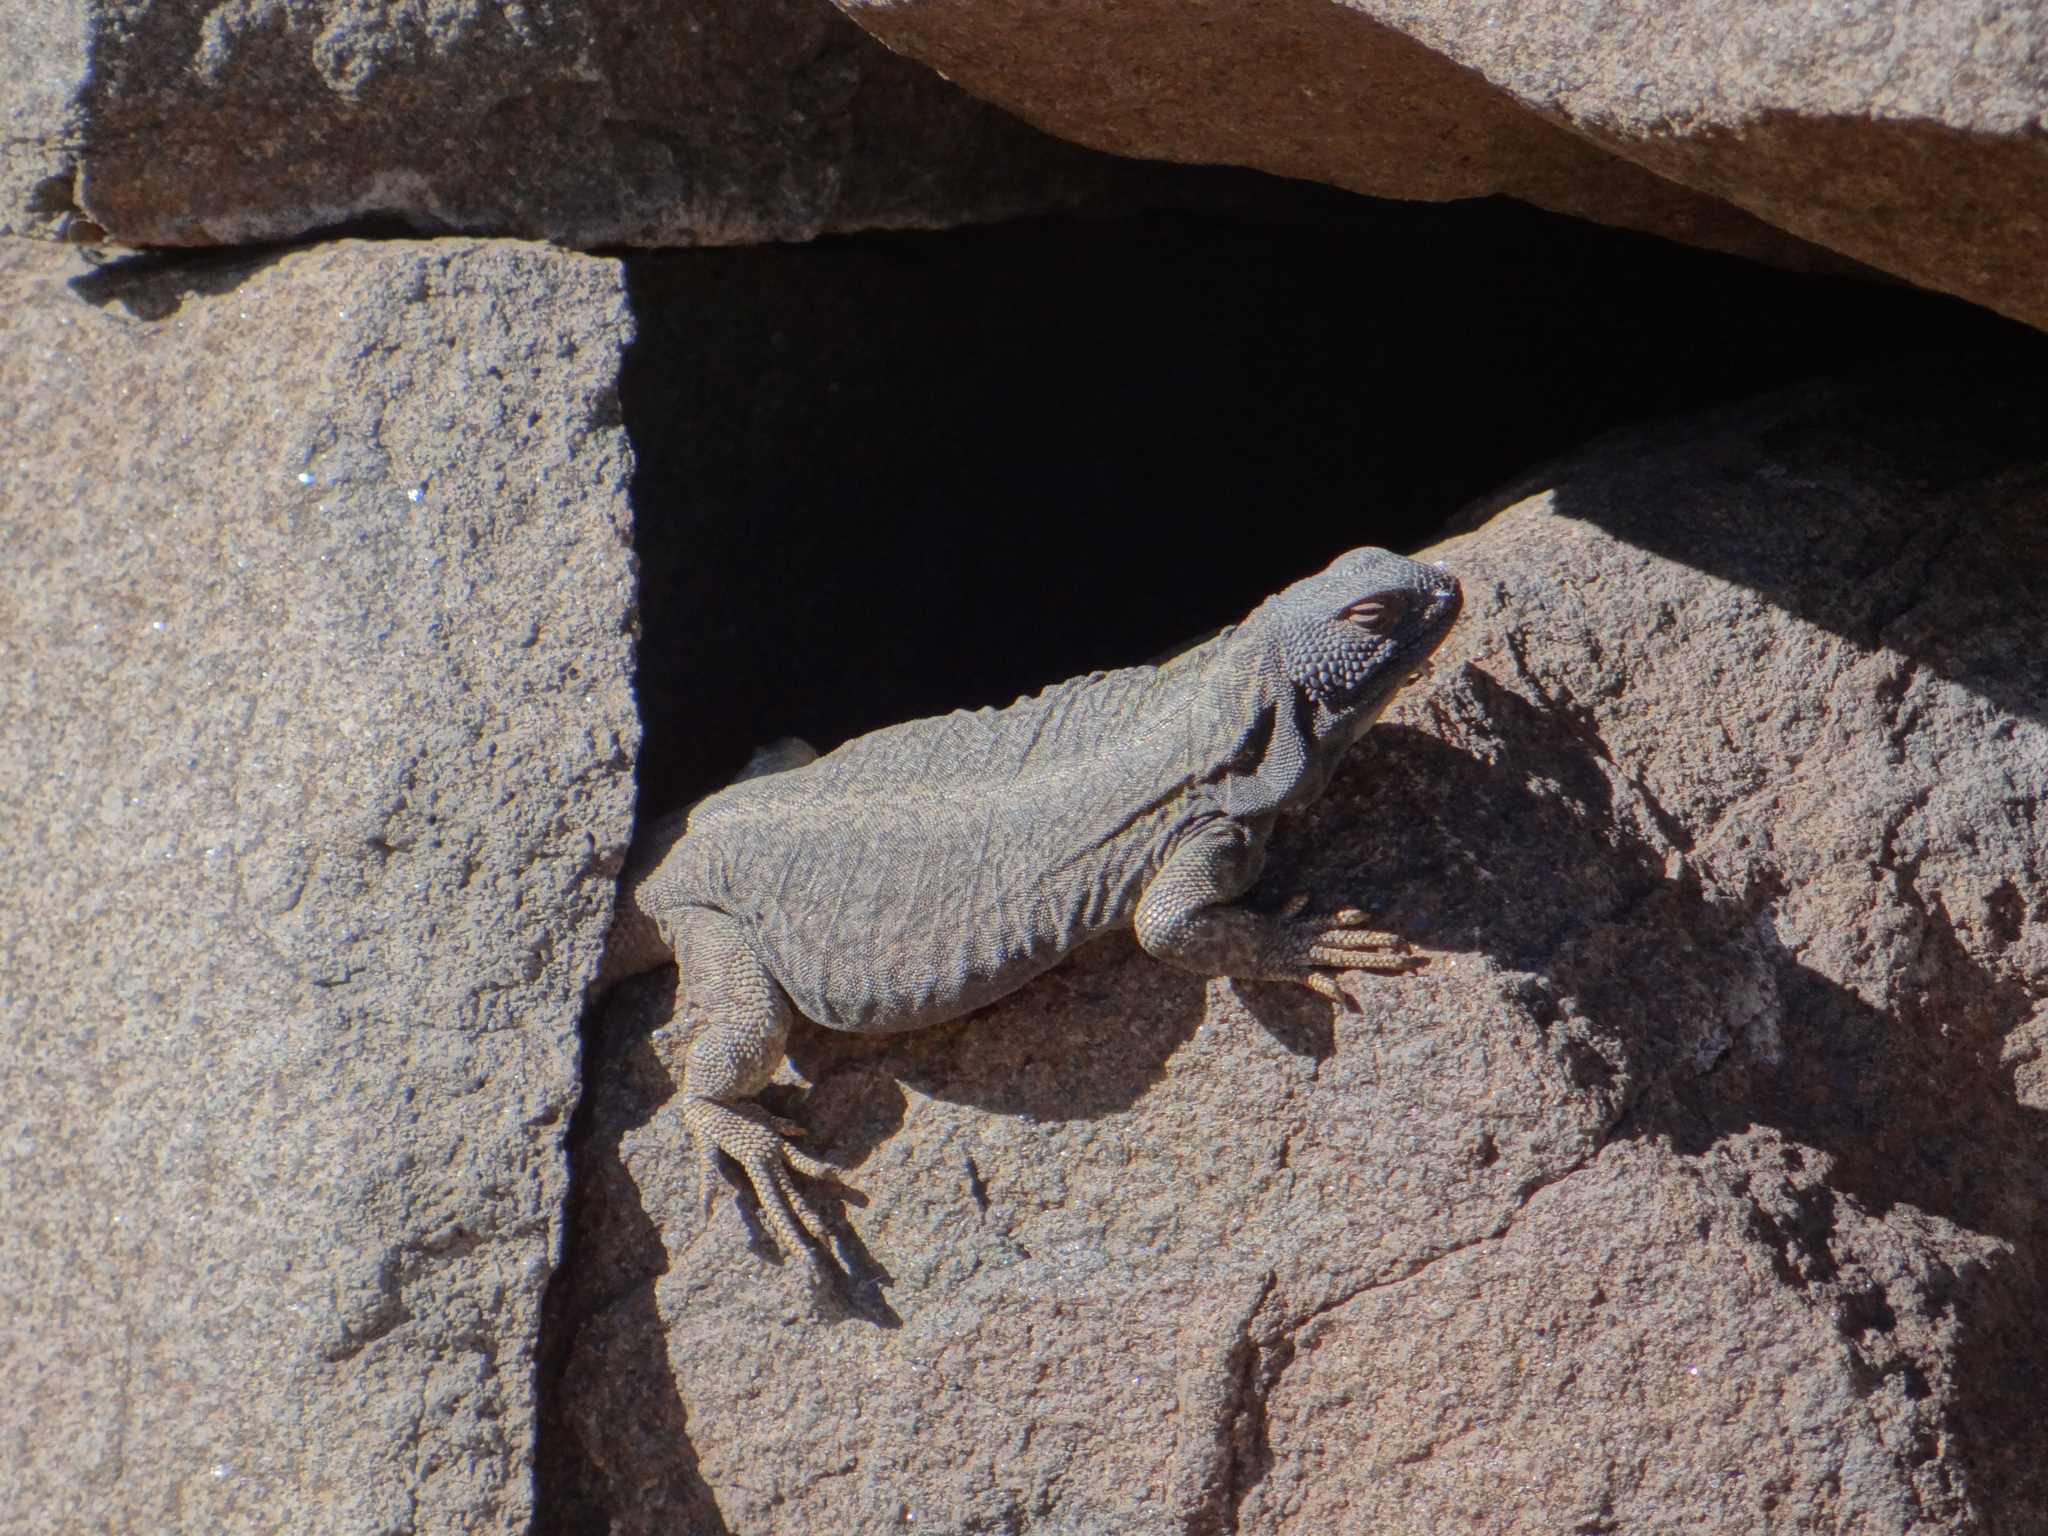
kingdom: Animalia
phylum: Chordata
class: Squamata
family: Liolaemidae
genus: Phymaturus
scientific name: Phymaturus extrilidus
